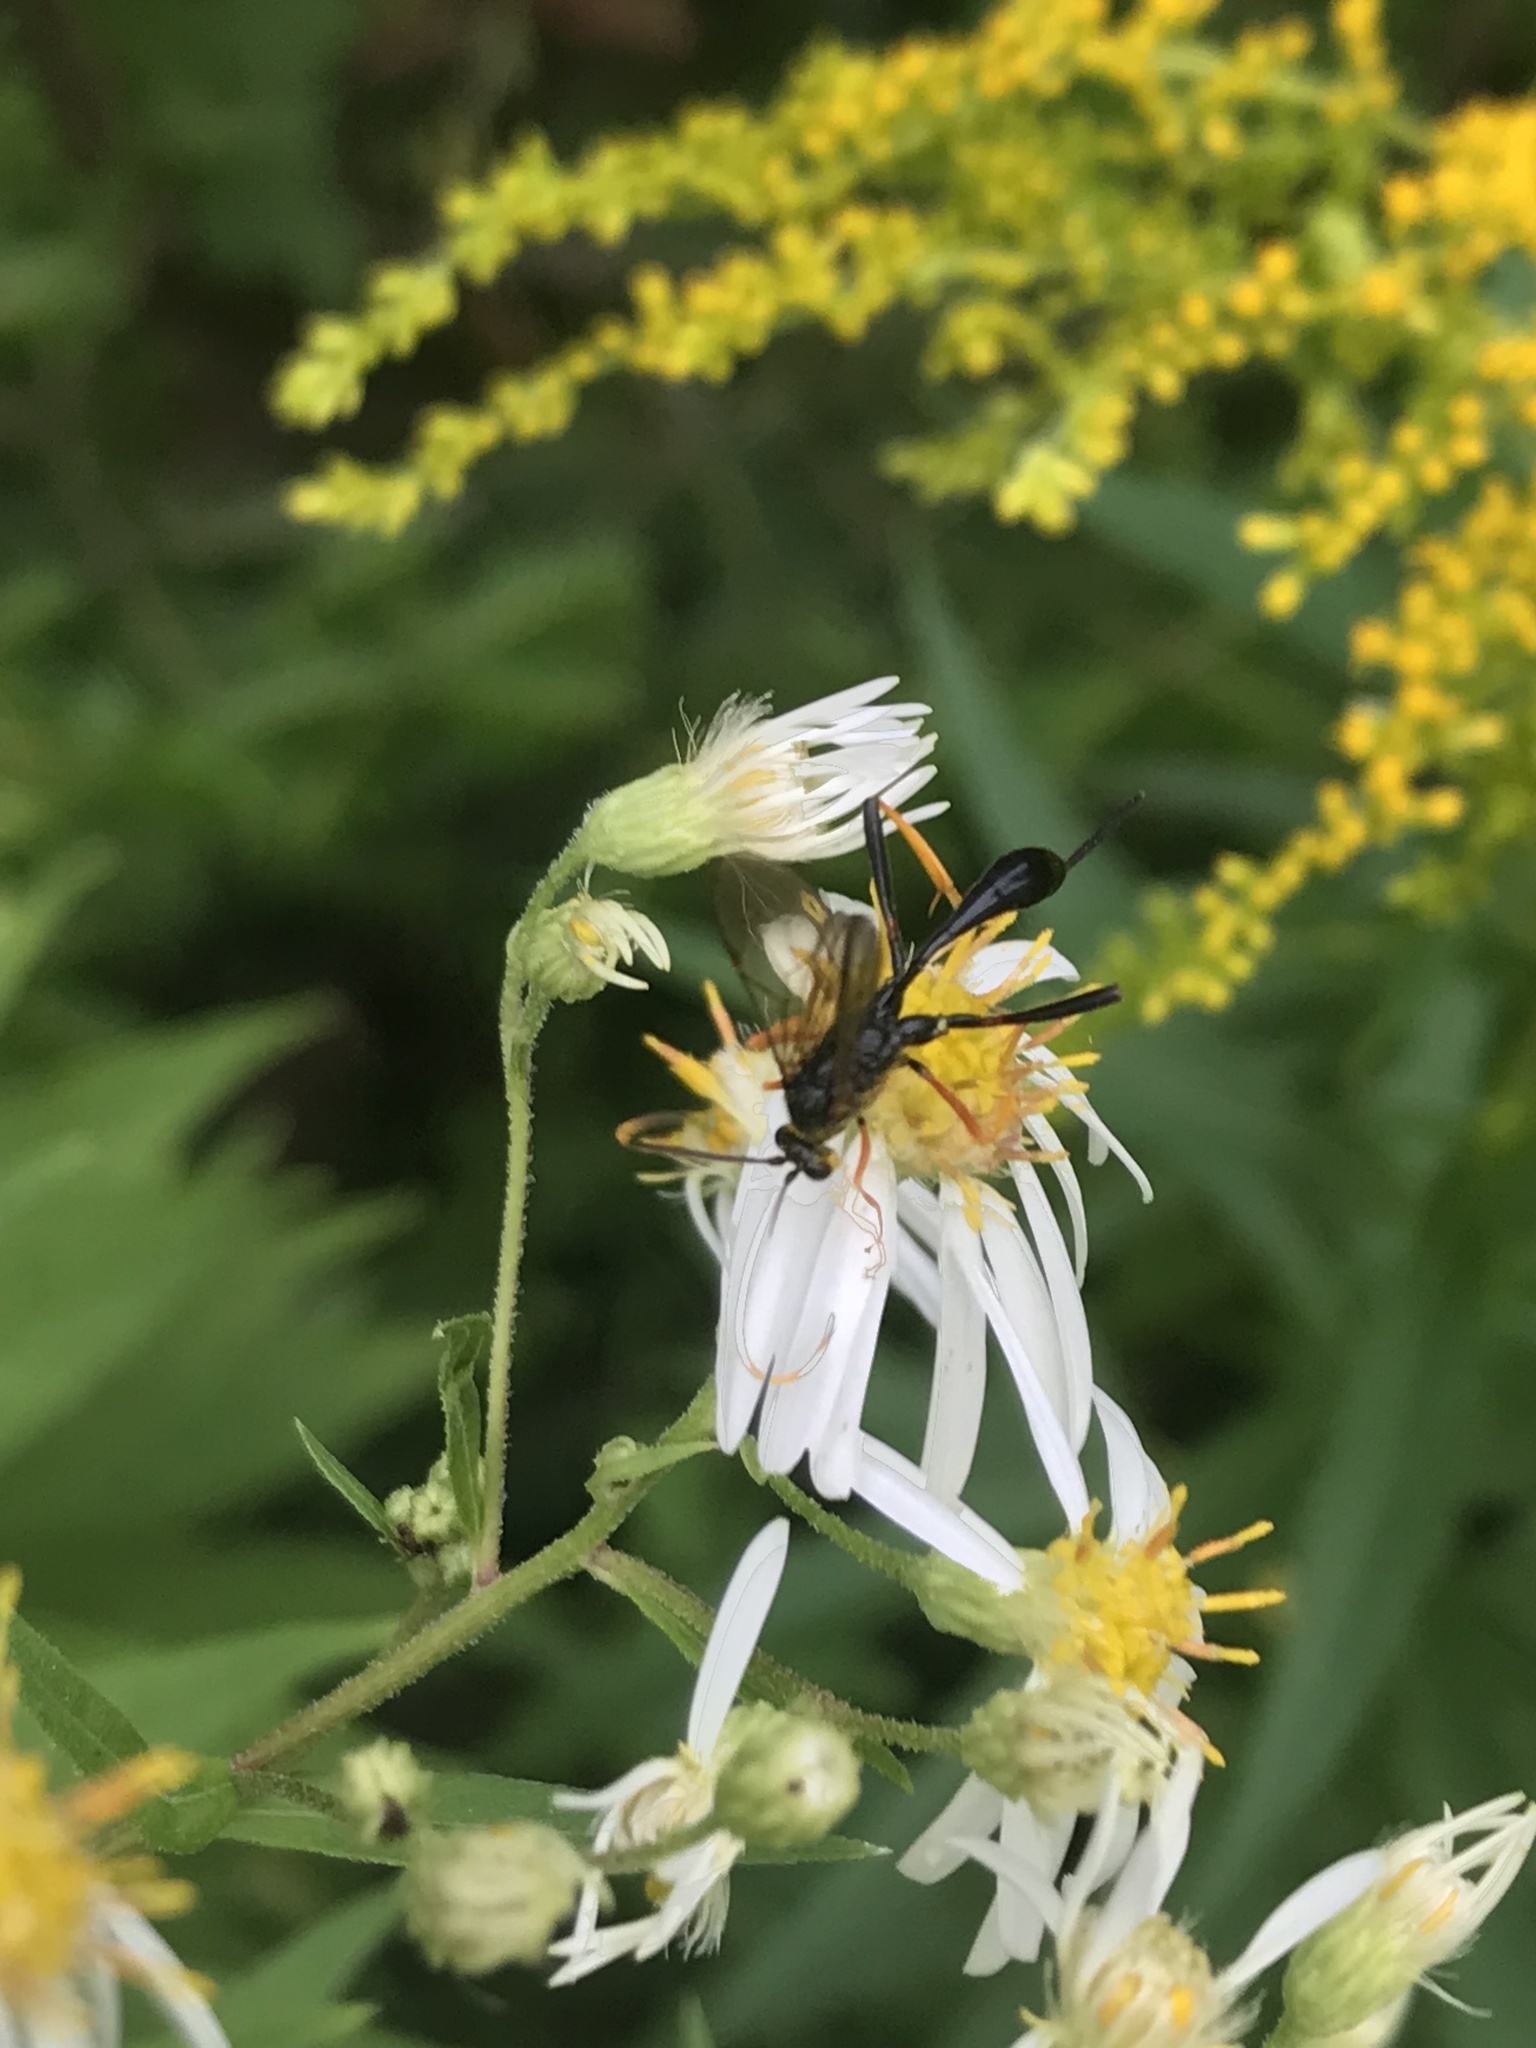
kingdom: Animalia
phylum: Arthropoda
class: Insecta
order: Hymenoptera
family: Ichneumonidae
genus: Acroricnus
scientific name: Acroricnus stylator
